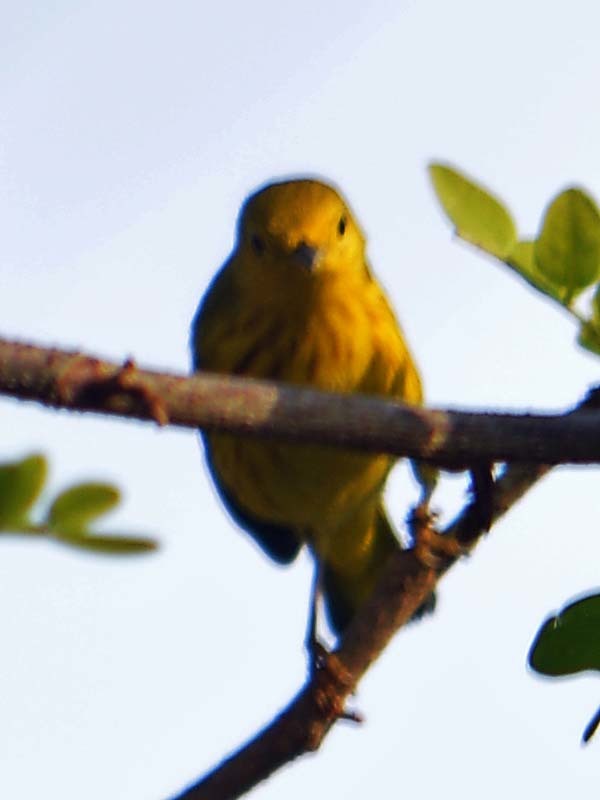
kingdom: Animalia
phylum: Chordata
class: Aves
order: Passeriformes
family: Parulidae
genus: Setophaga
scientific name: Setophaga petechia
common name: Yellow warbler
